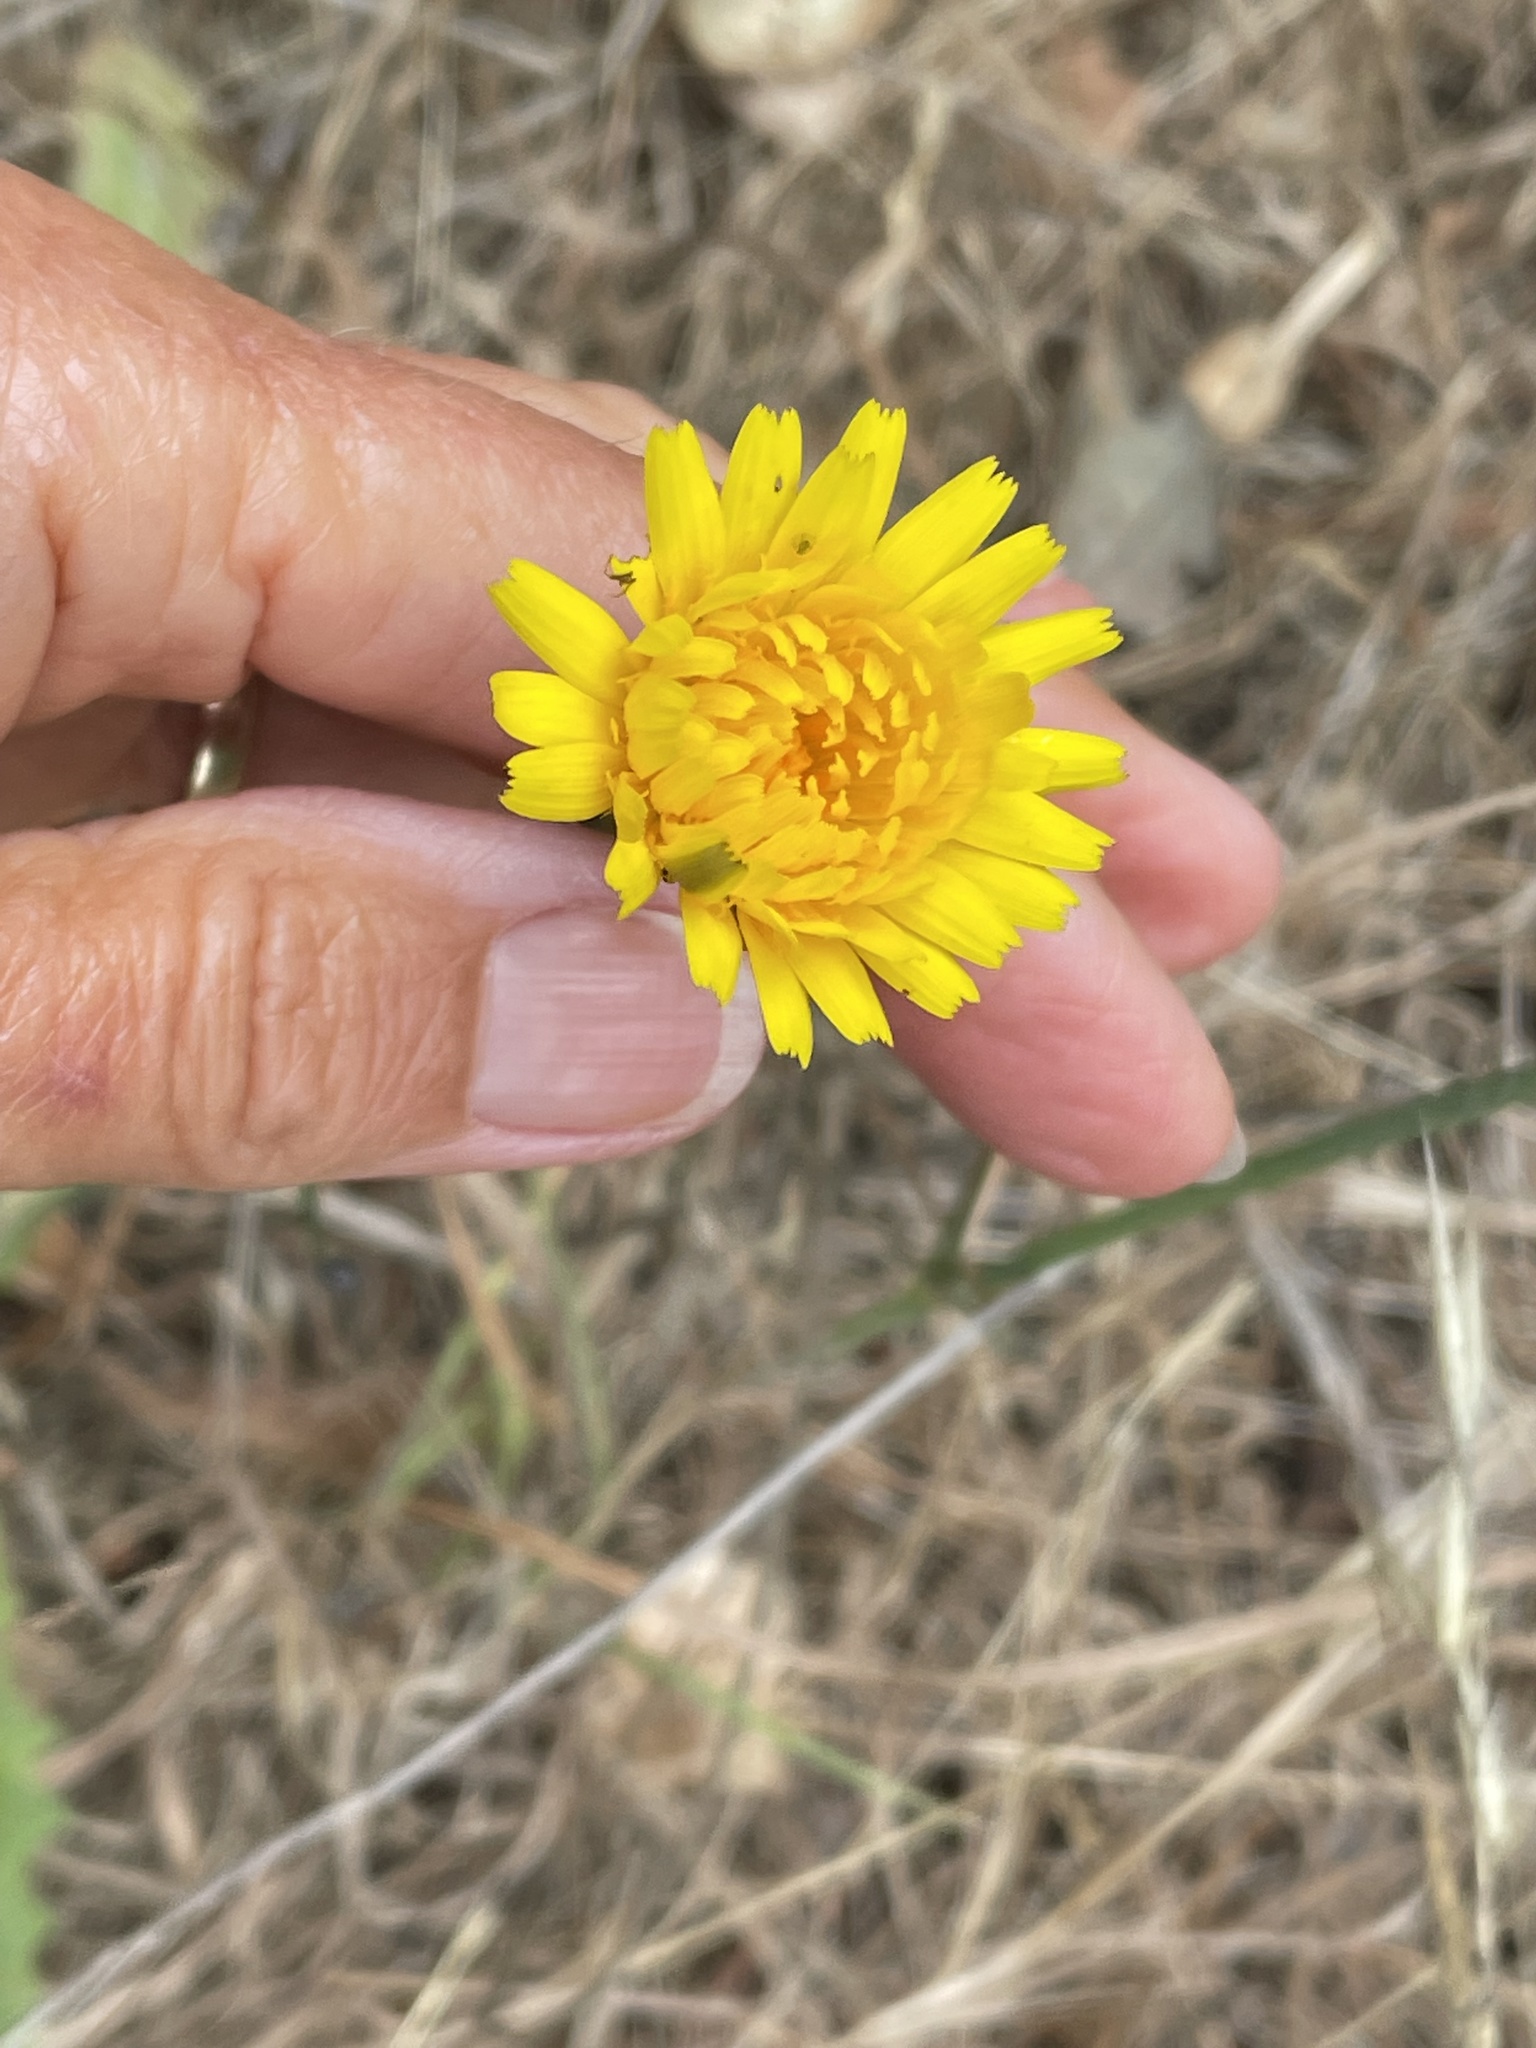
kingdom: Plantae
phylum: Tracheophyta
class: Magnoliopsida
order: Asterales
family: Asteraceae
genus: Hypochaeris
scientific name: Hypochaeris radicata
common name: Flatweed
